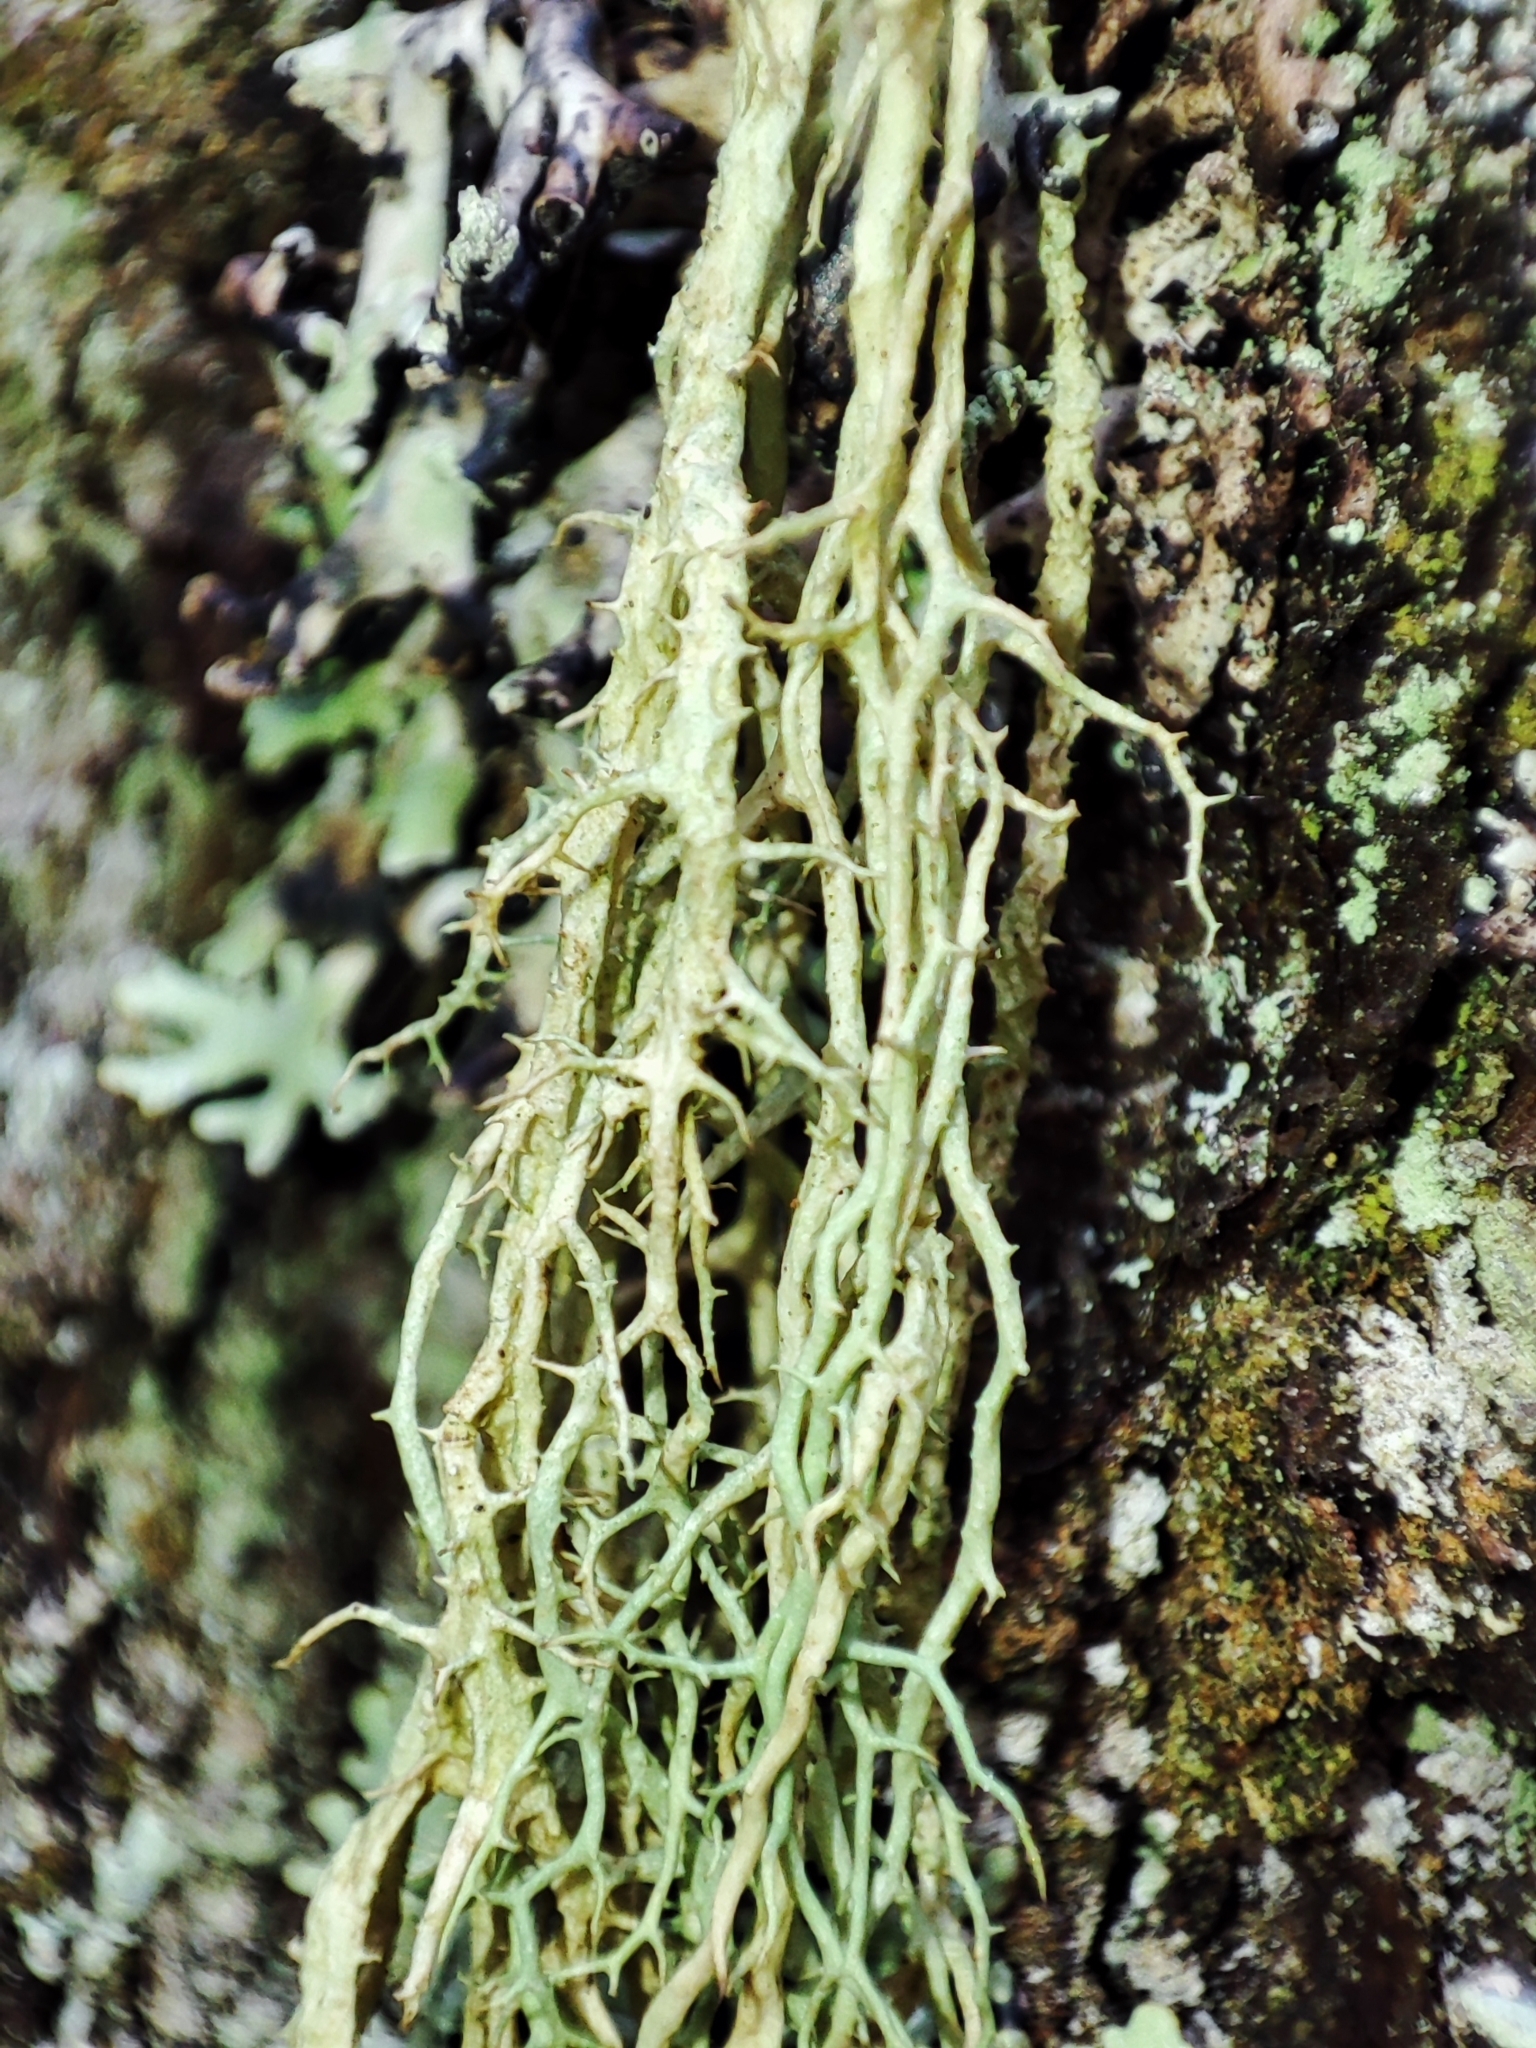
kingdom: Fungi
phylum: Ascomycota
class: Lecanoromycetes
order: Lecanorales
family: Parmeliaceae
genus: Evernia
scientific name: Evernia divaricata
